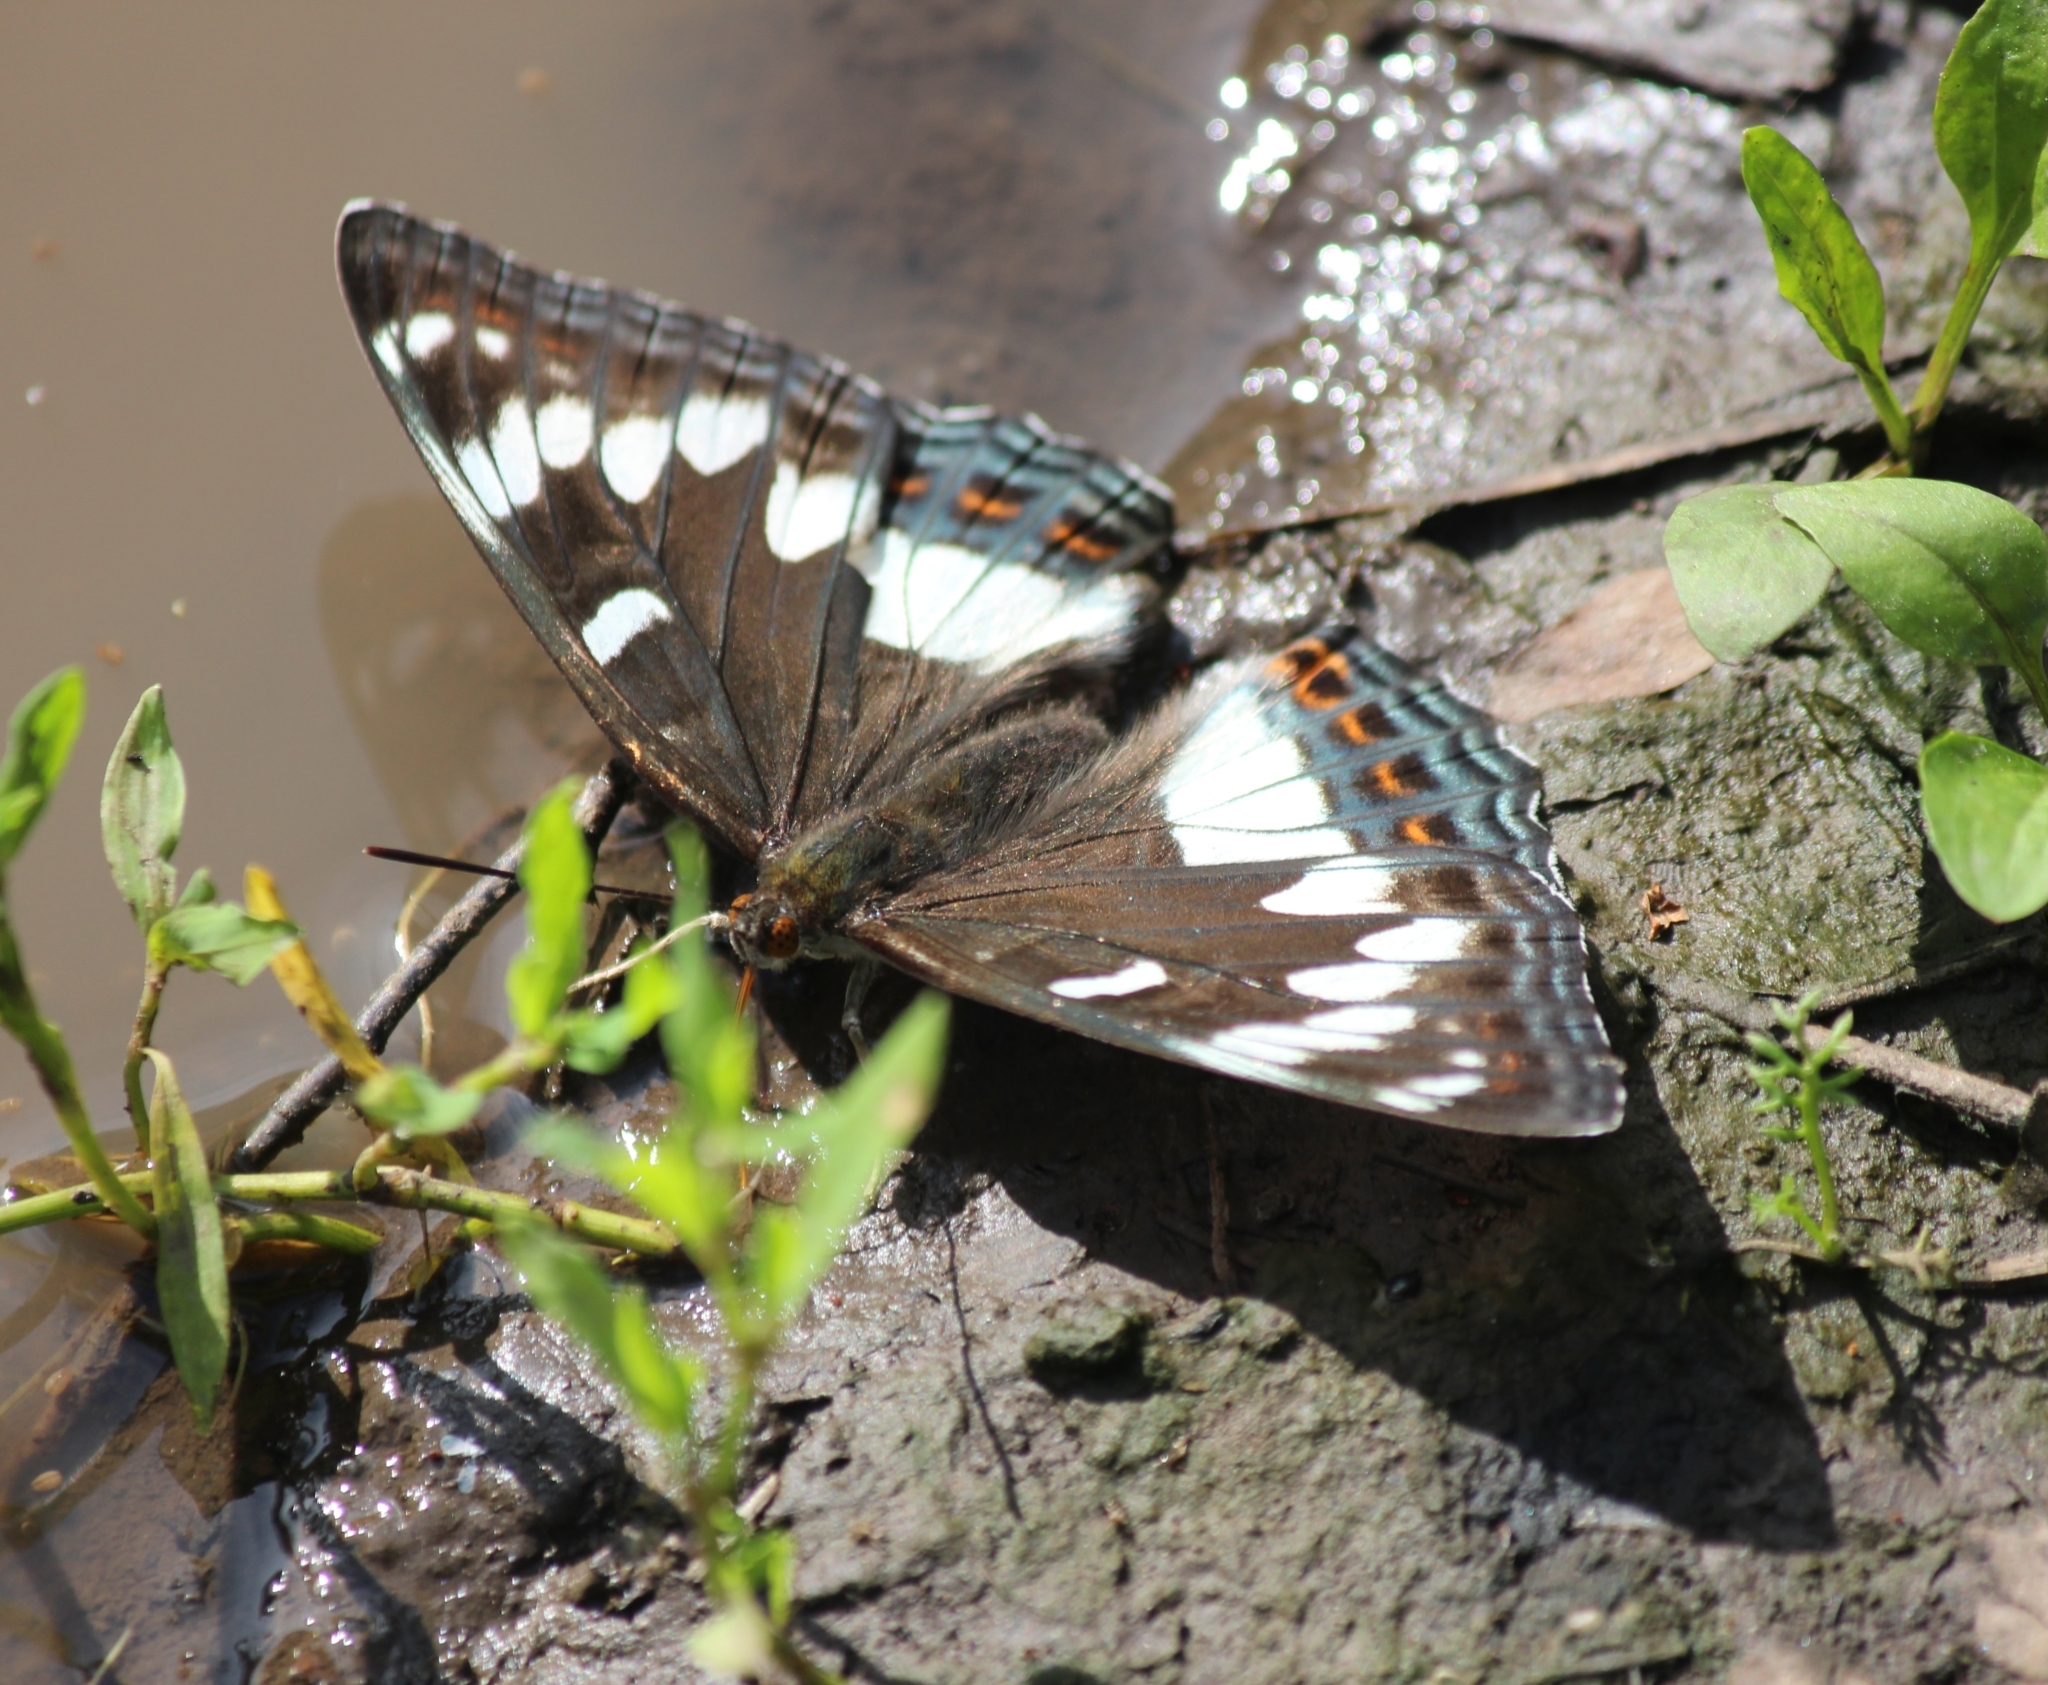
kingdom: Animalia
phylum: Arthropoda
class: Insecta
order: Lepidoptera
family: Nymphalidae
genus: Limenitis
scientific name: Limenitis populi
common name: Poplar admiral
